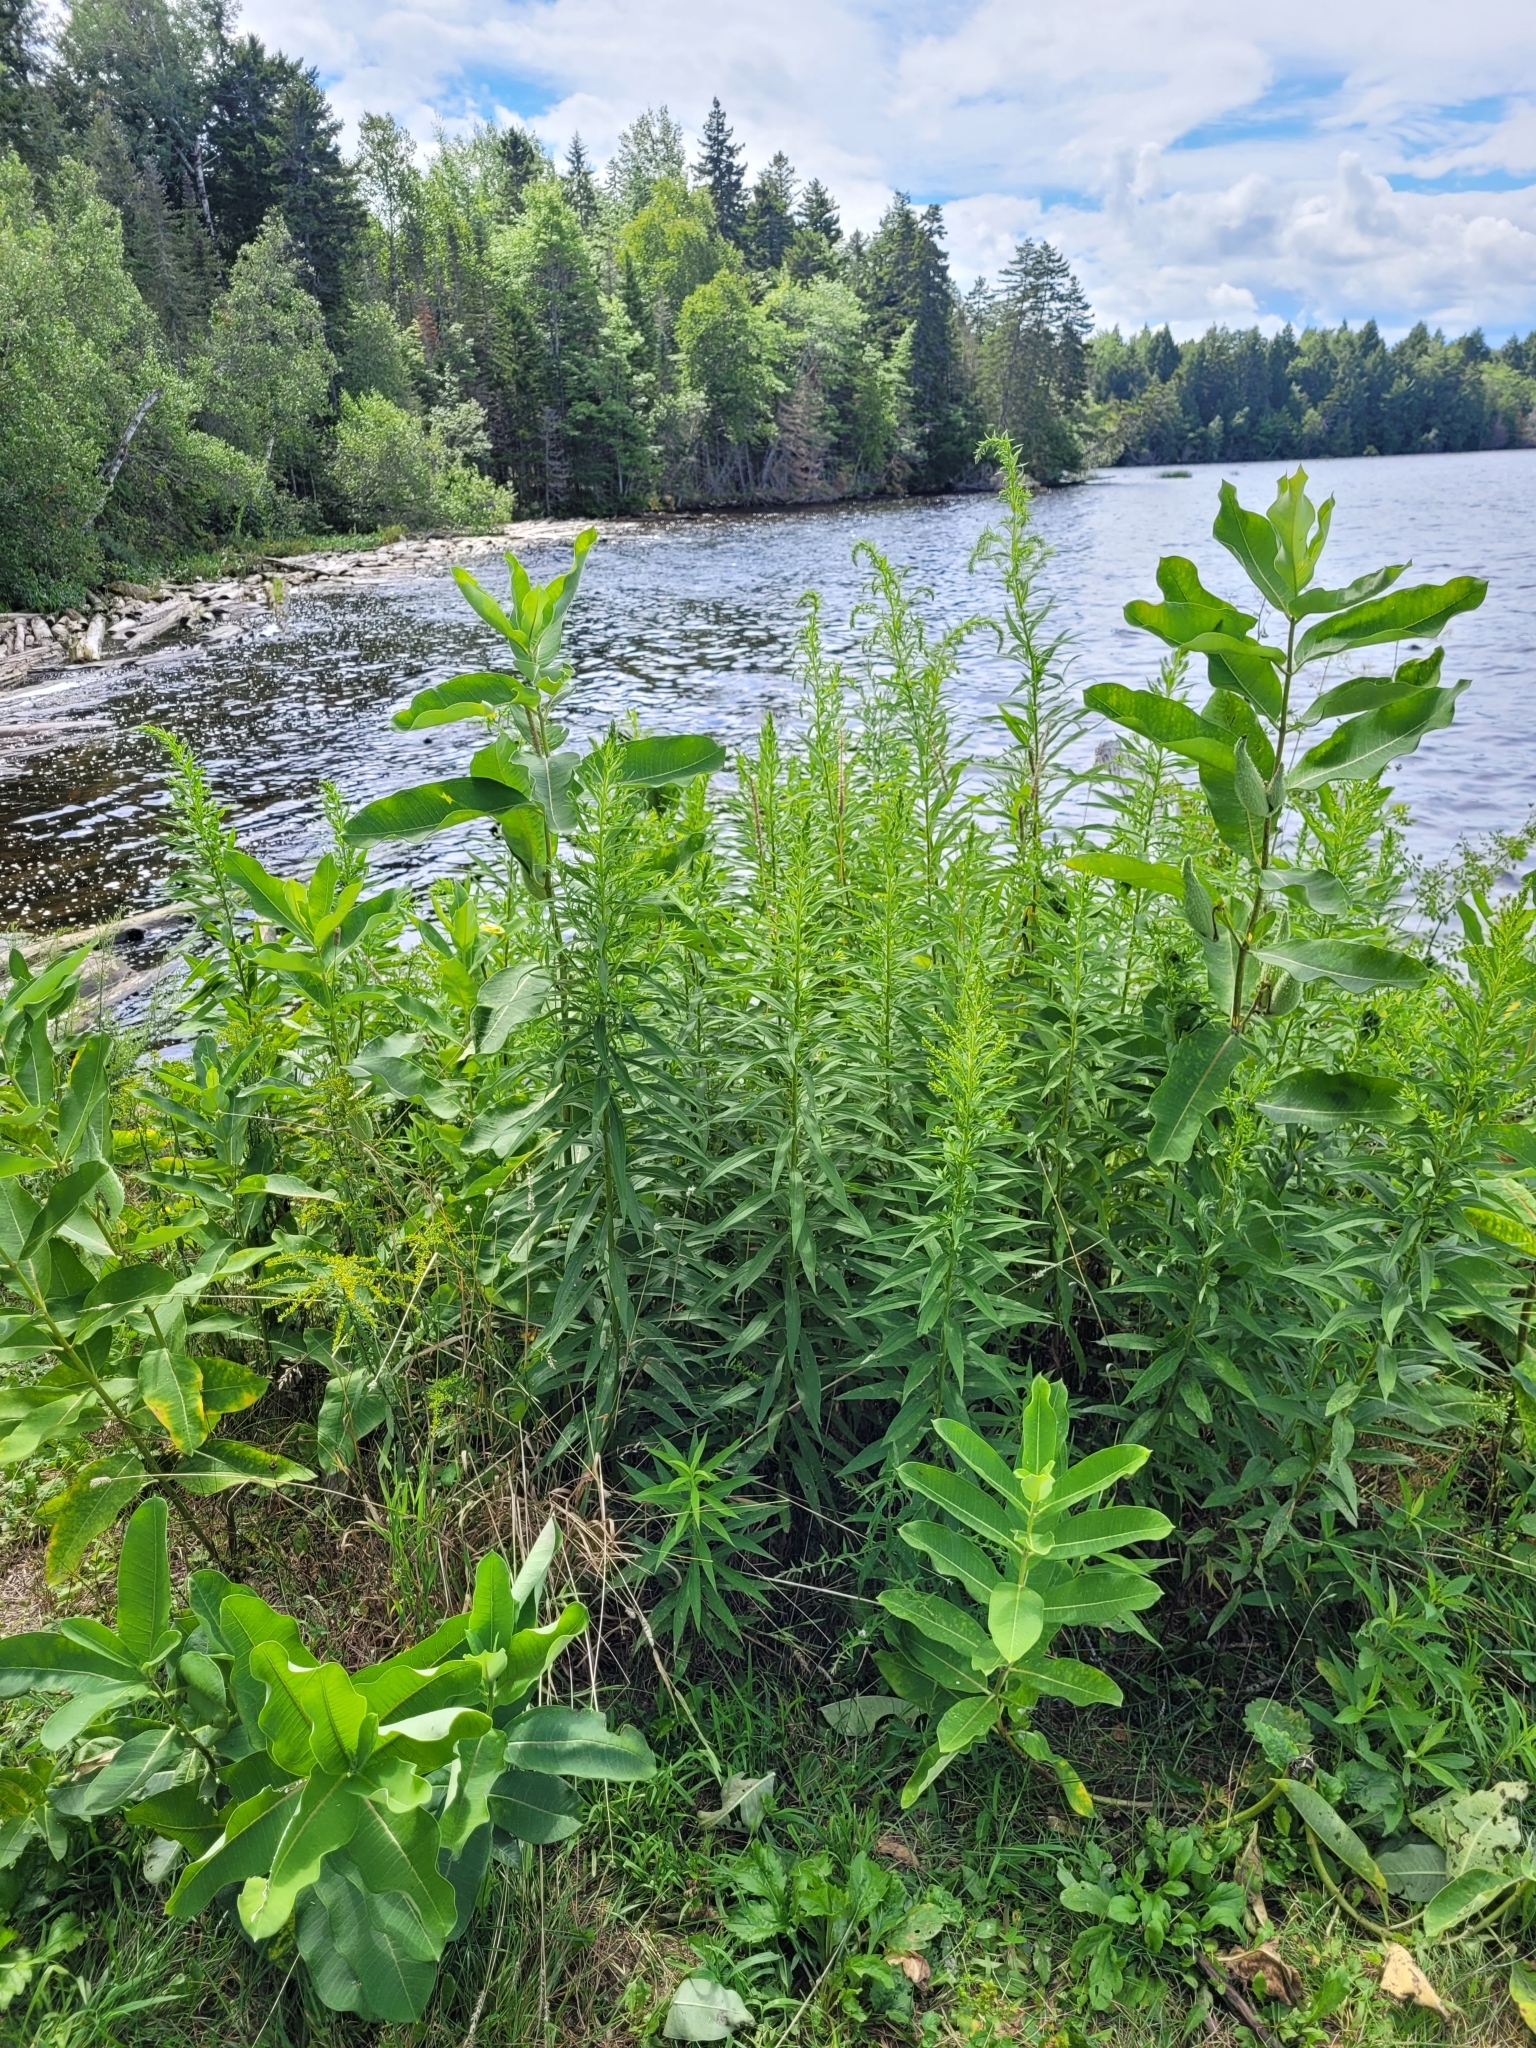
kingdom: Plantae
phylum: Tracheophyta
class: Magnoliopsida
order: Gentianales
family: Apocynaceae
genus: Asclepias
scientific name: Asclepias syriaca
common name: Common milkweed
